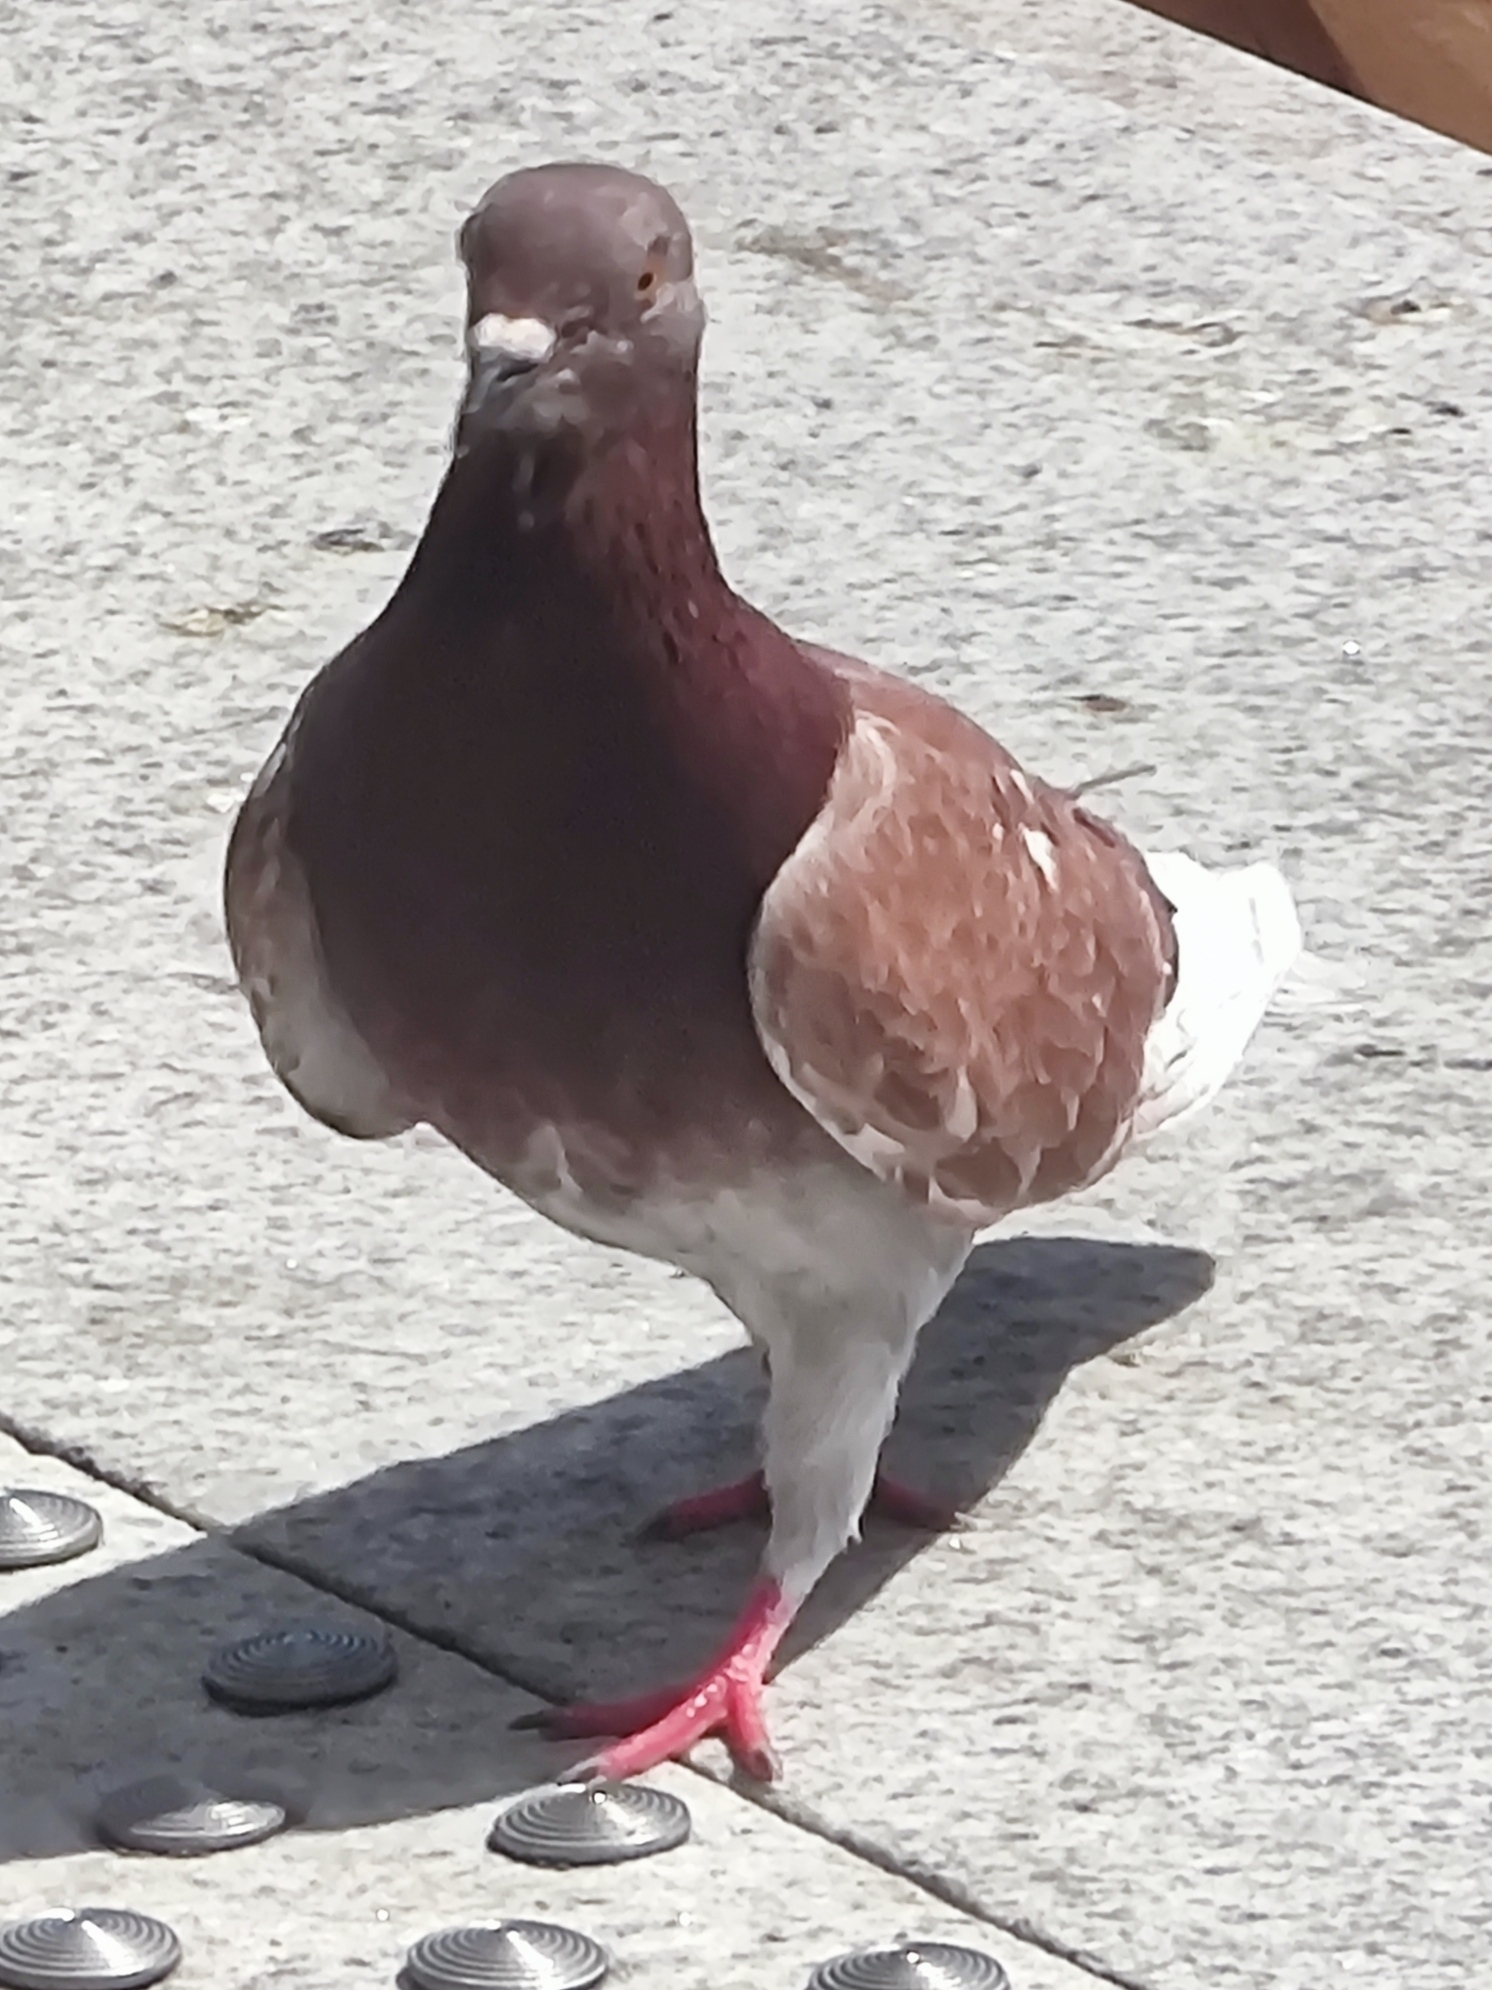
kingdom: Animalia
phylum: Chordata
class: Aves
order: Columbiformes
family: Columbidae
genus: Columba
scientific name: Columba livia
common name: Rock pigeon
